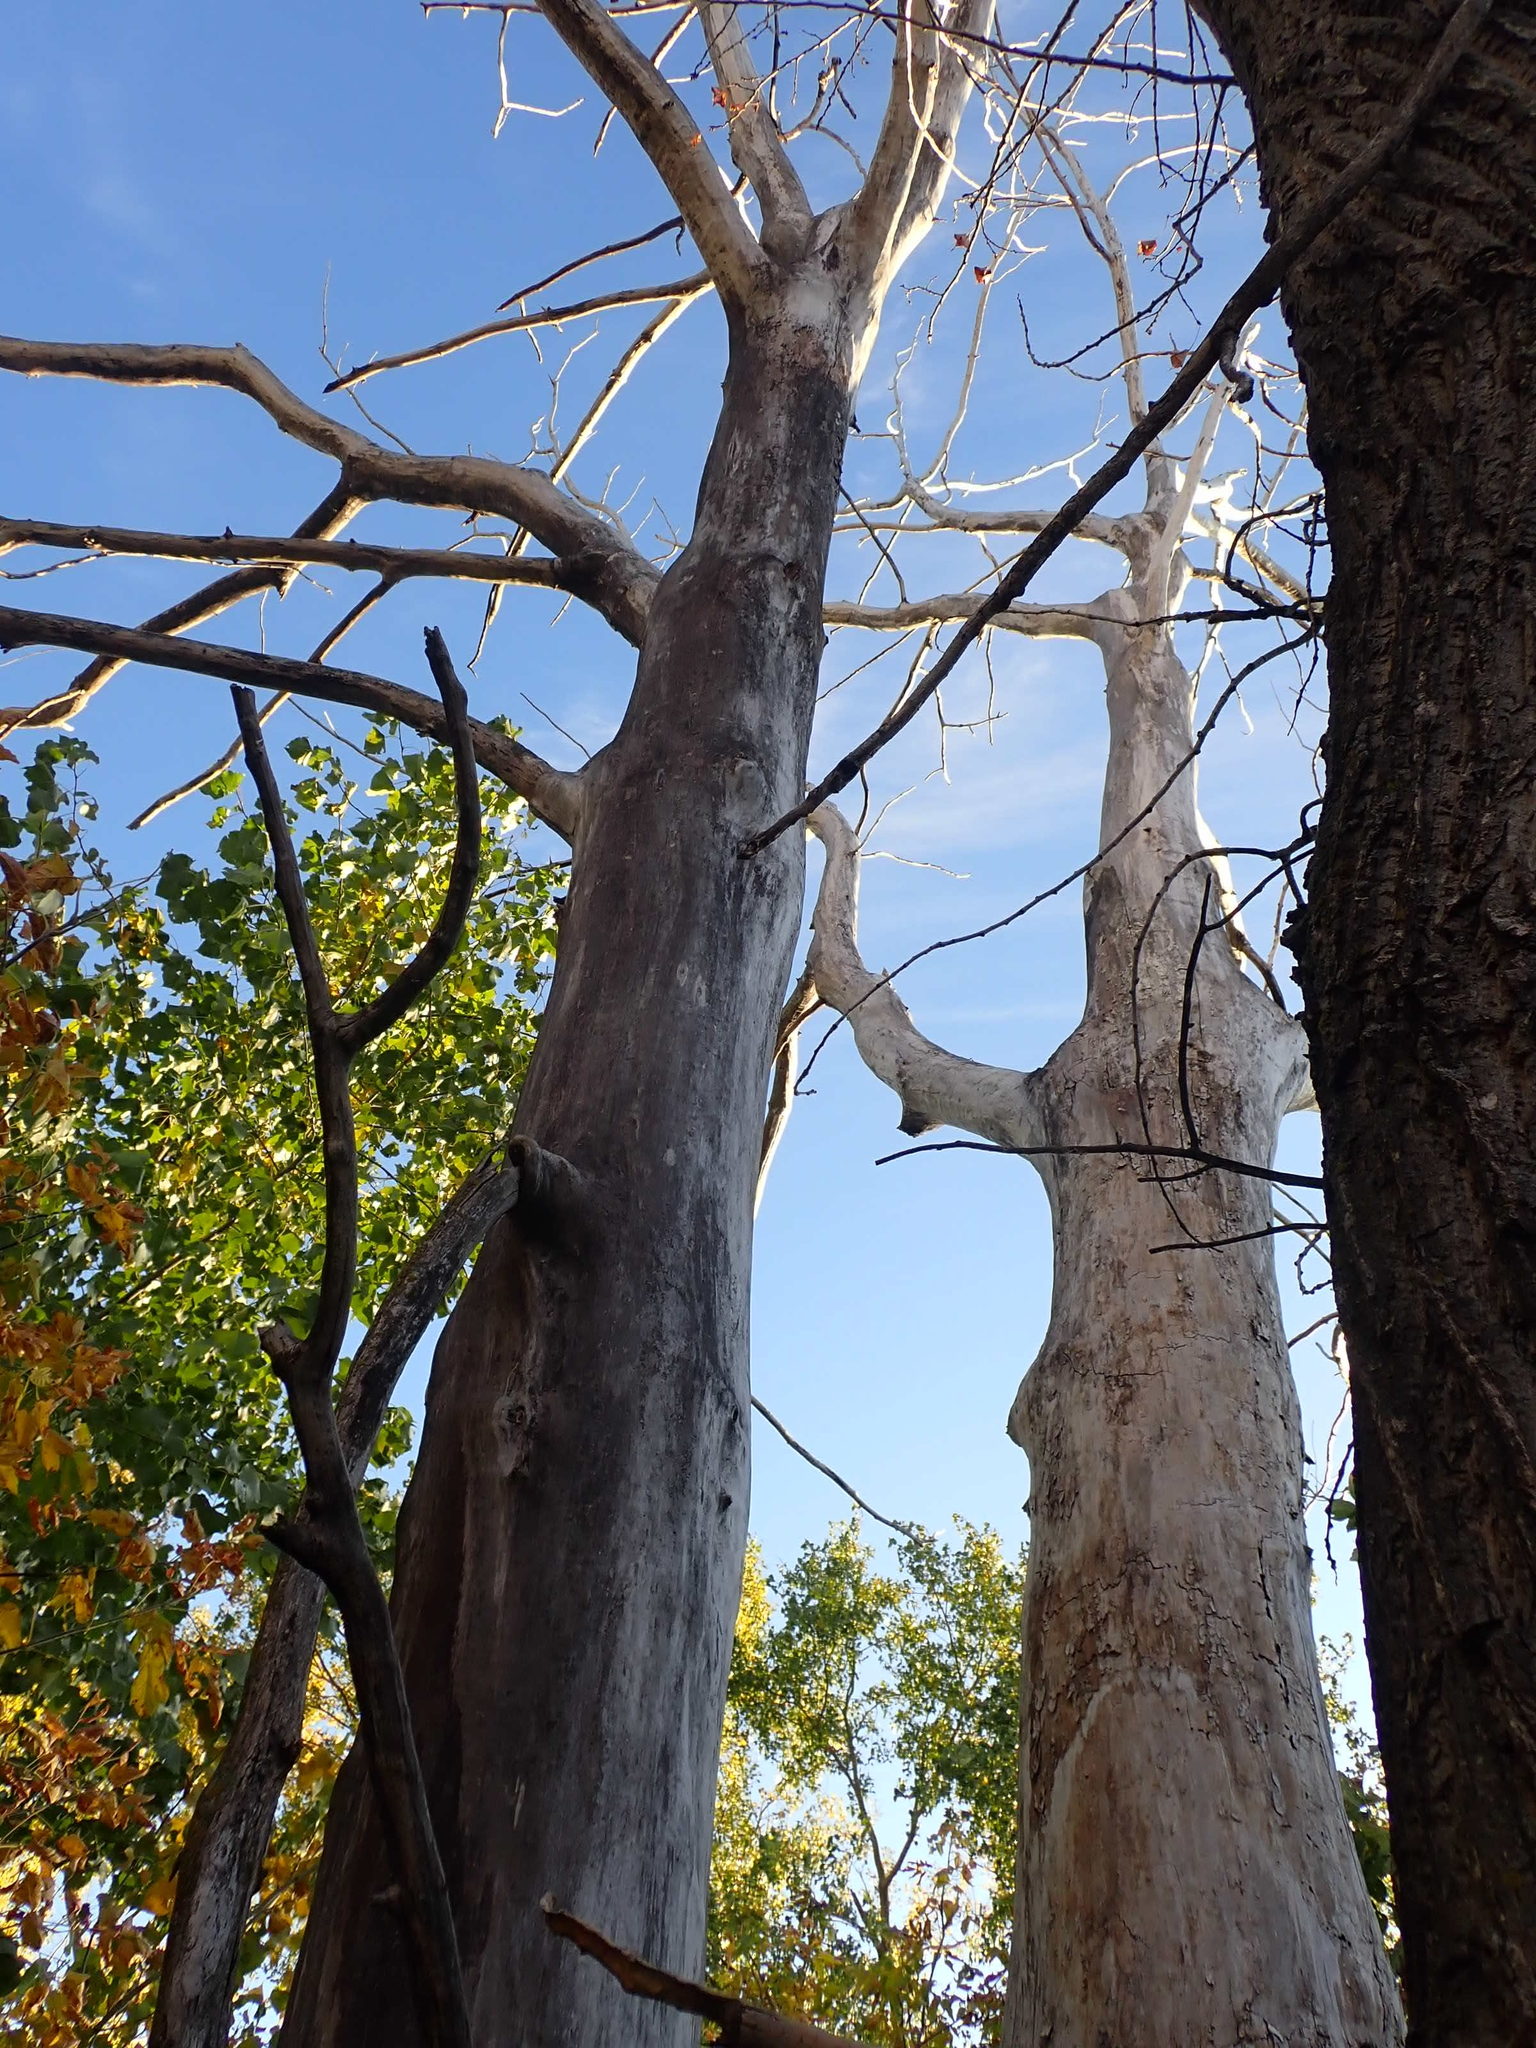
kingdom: Plantae
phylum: Tracheophyta
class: Magnoliopsida
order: Malpighiales
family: Salicaceae
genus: Populus
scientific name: Populus deltoides
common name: Eastern cottonwood
